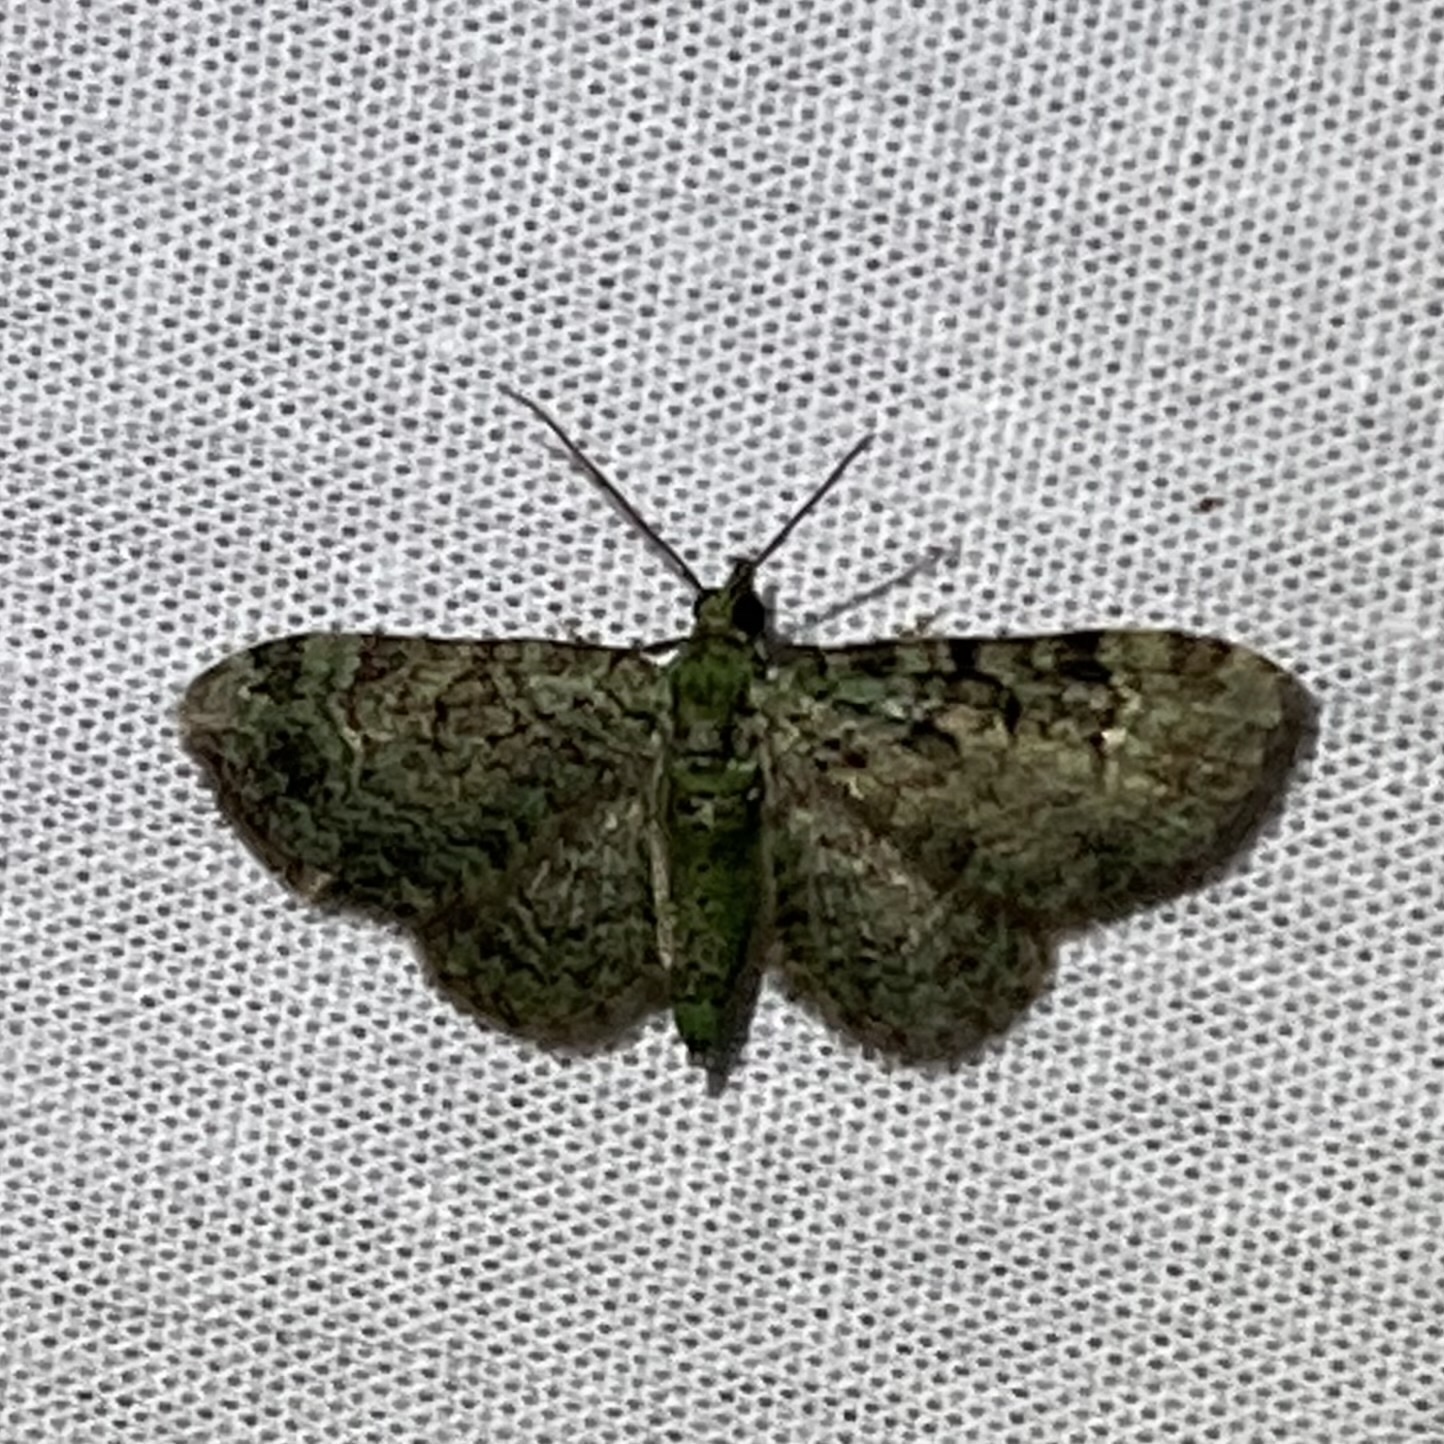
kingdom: Animalia
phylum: Arthropoda
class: Insecta
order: Lepidoptera
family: Geometridae
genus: Pasiphila
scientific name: Pasiphila rectangulata
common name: Green pug
